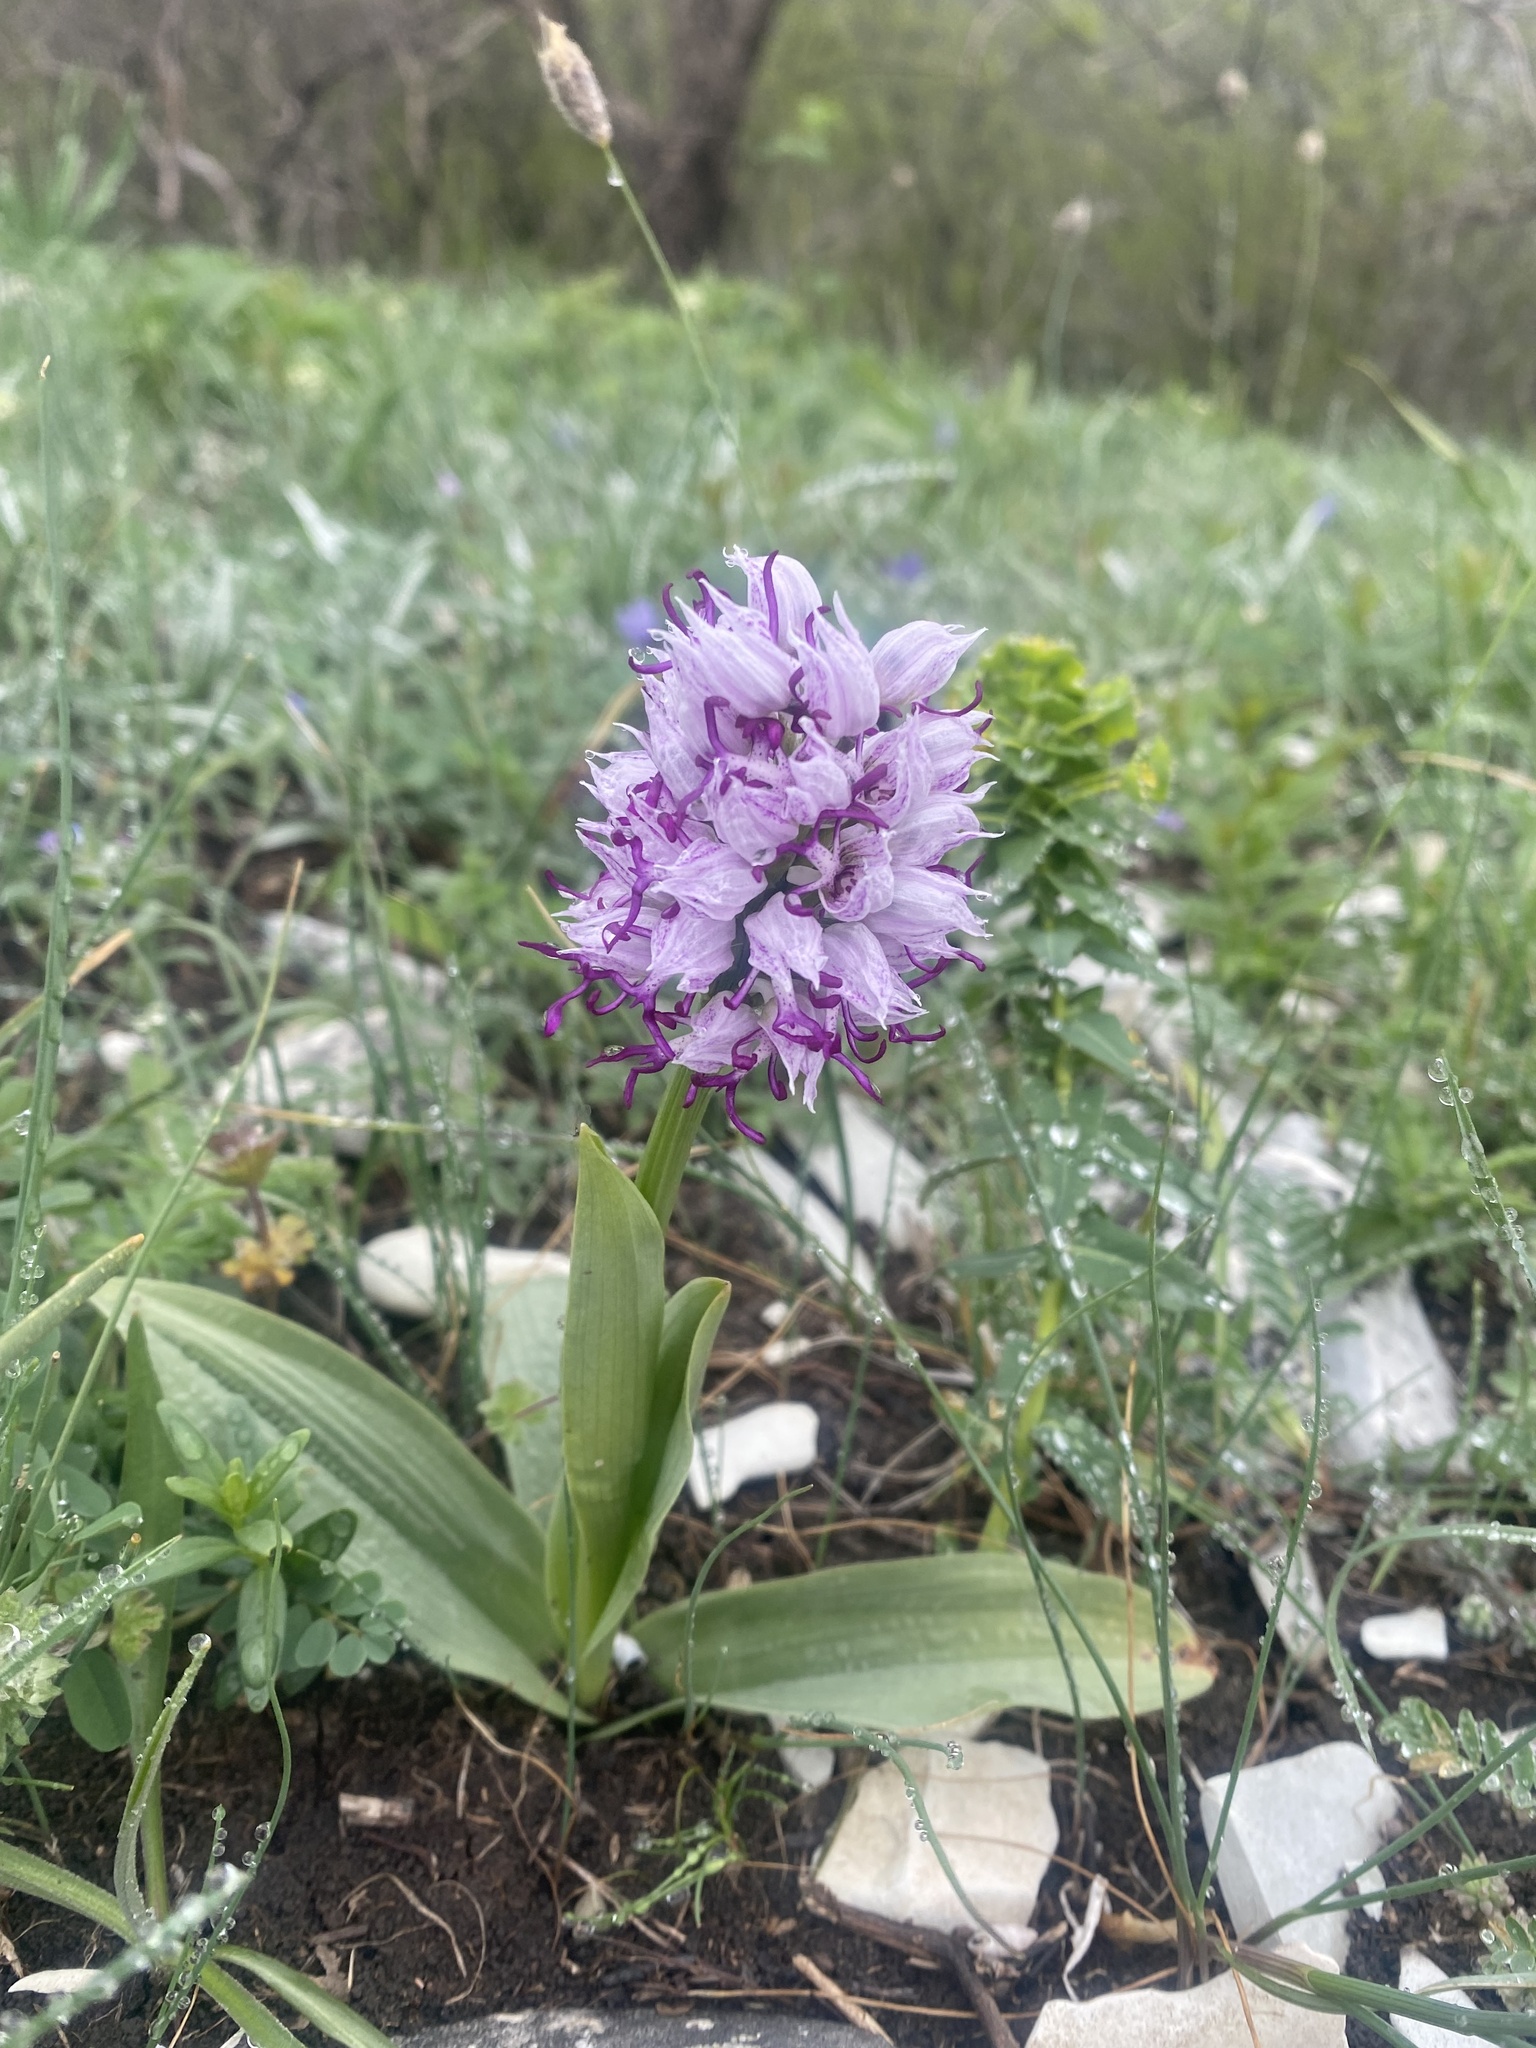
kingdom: Plantae
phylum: Tracheophyta
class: Liliopsida
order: Asparagales
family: Orchidaceae
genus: Orchis
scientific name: Orchis simia
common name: Monkey orchid
